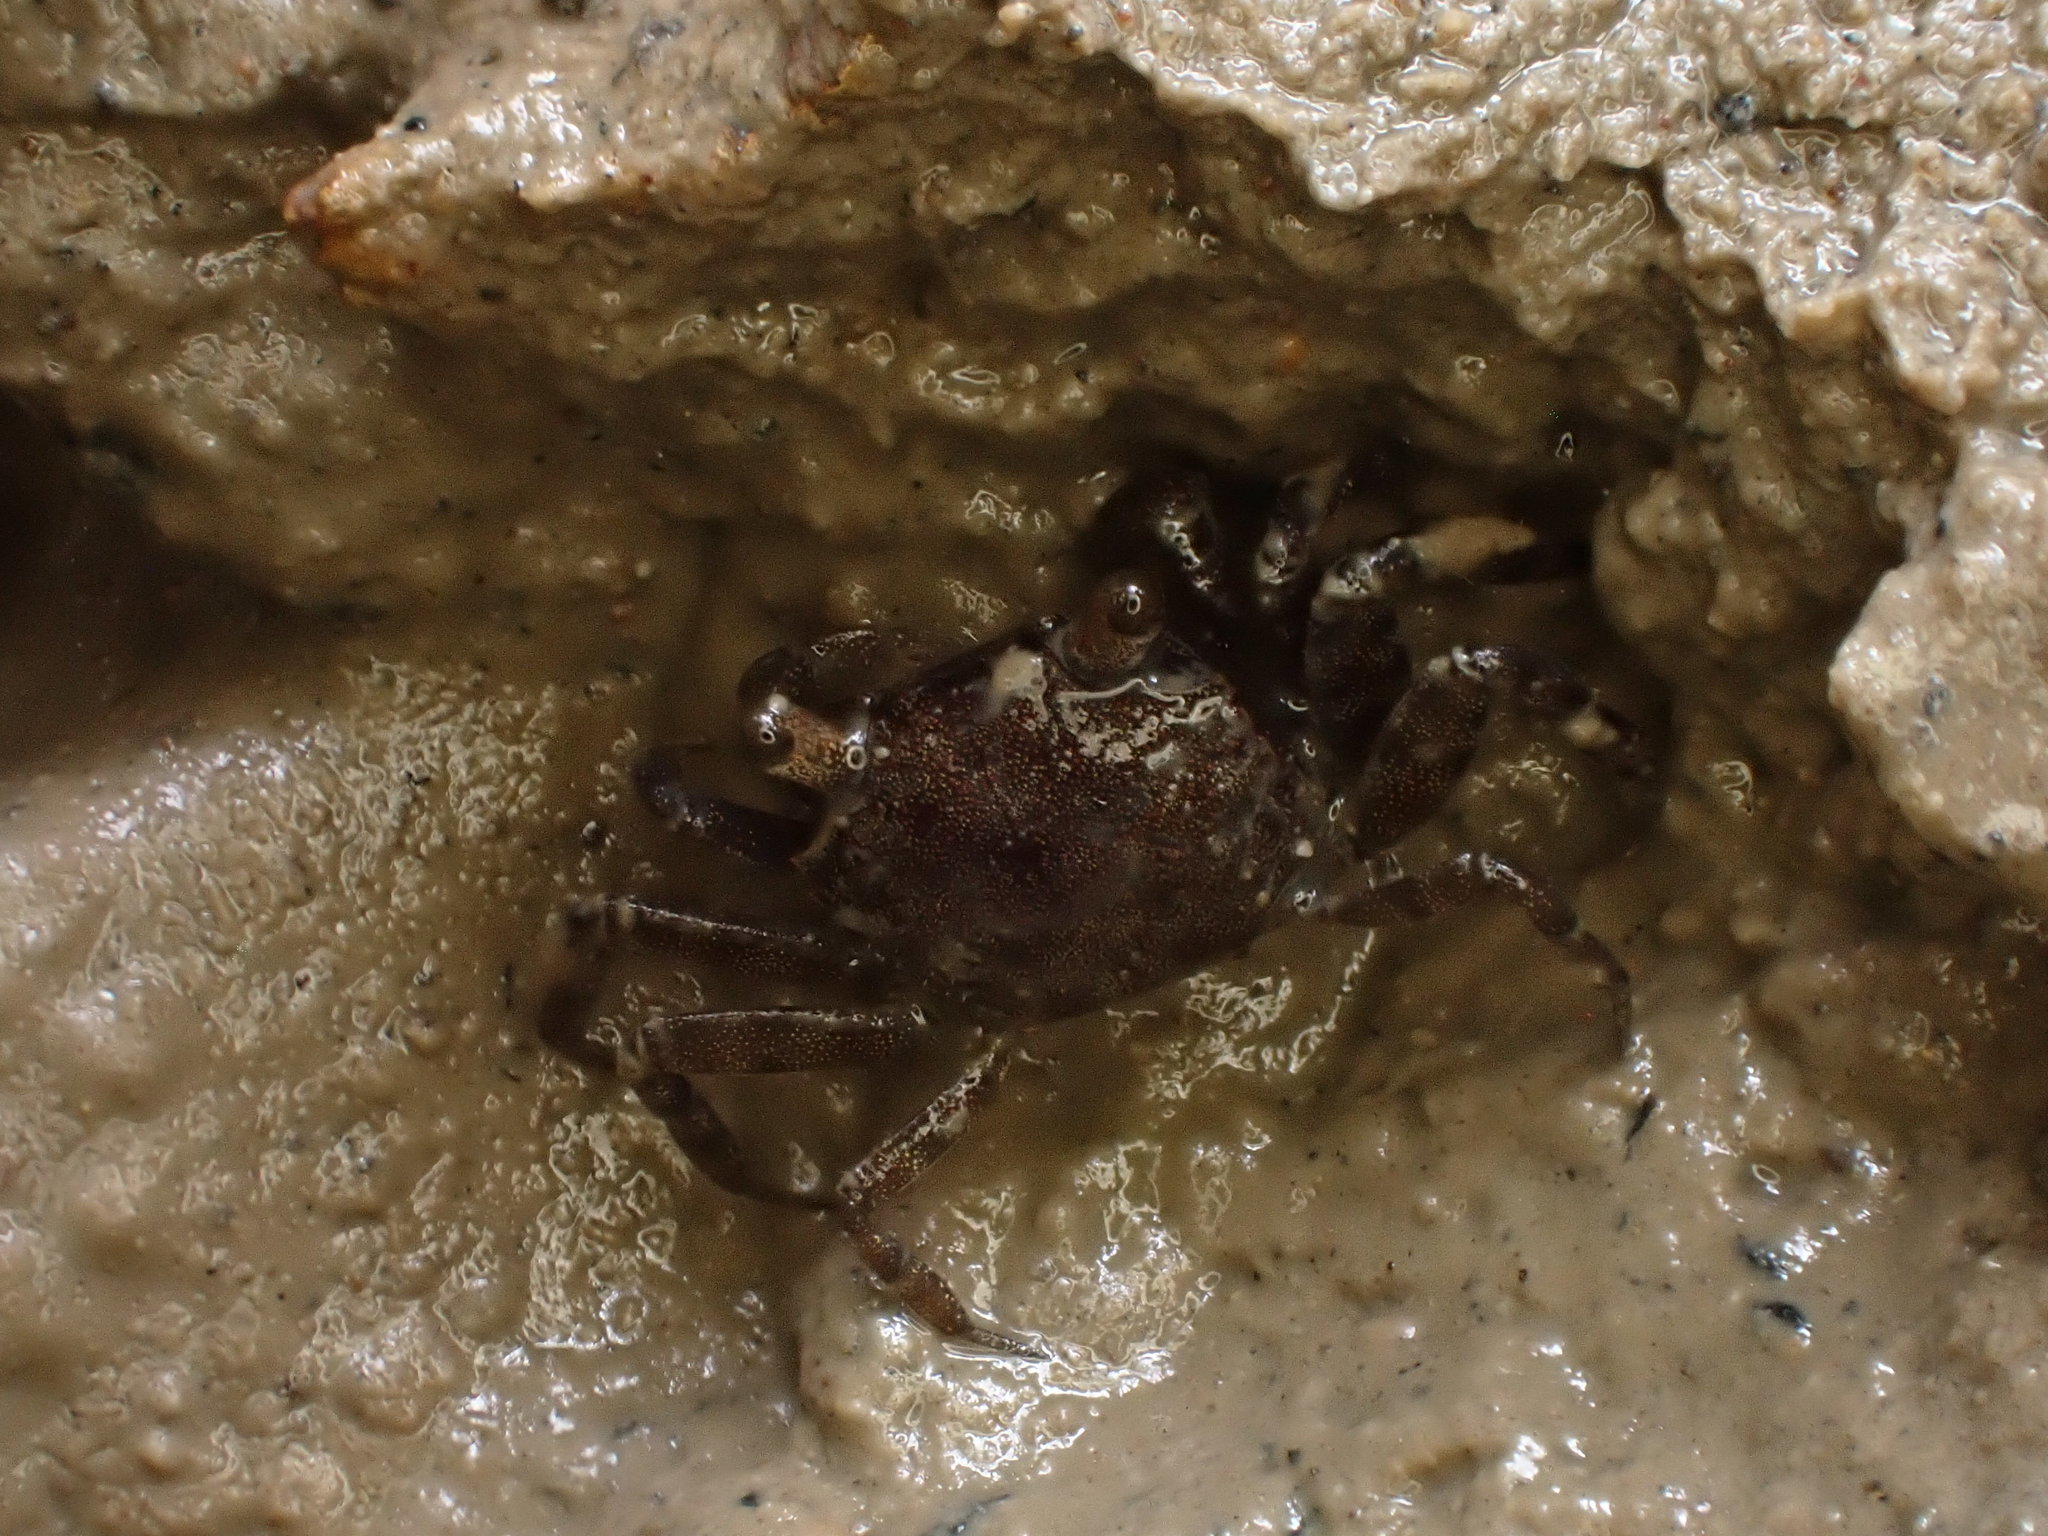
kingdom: Animalia
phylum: Arthropoda
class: Malacostraca
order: Decapoda
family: Varunidae
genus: Austrohelice
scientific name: Austrohelice crassa
